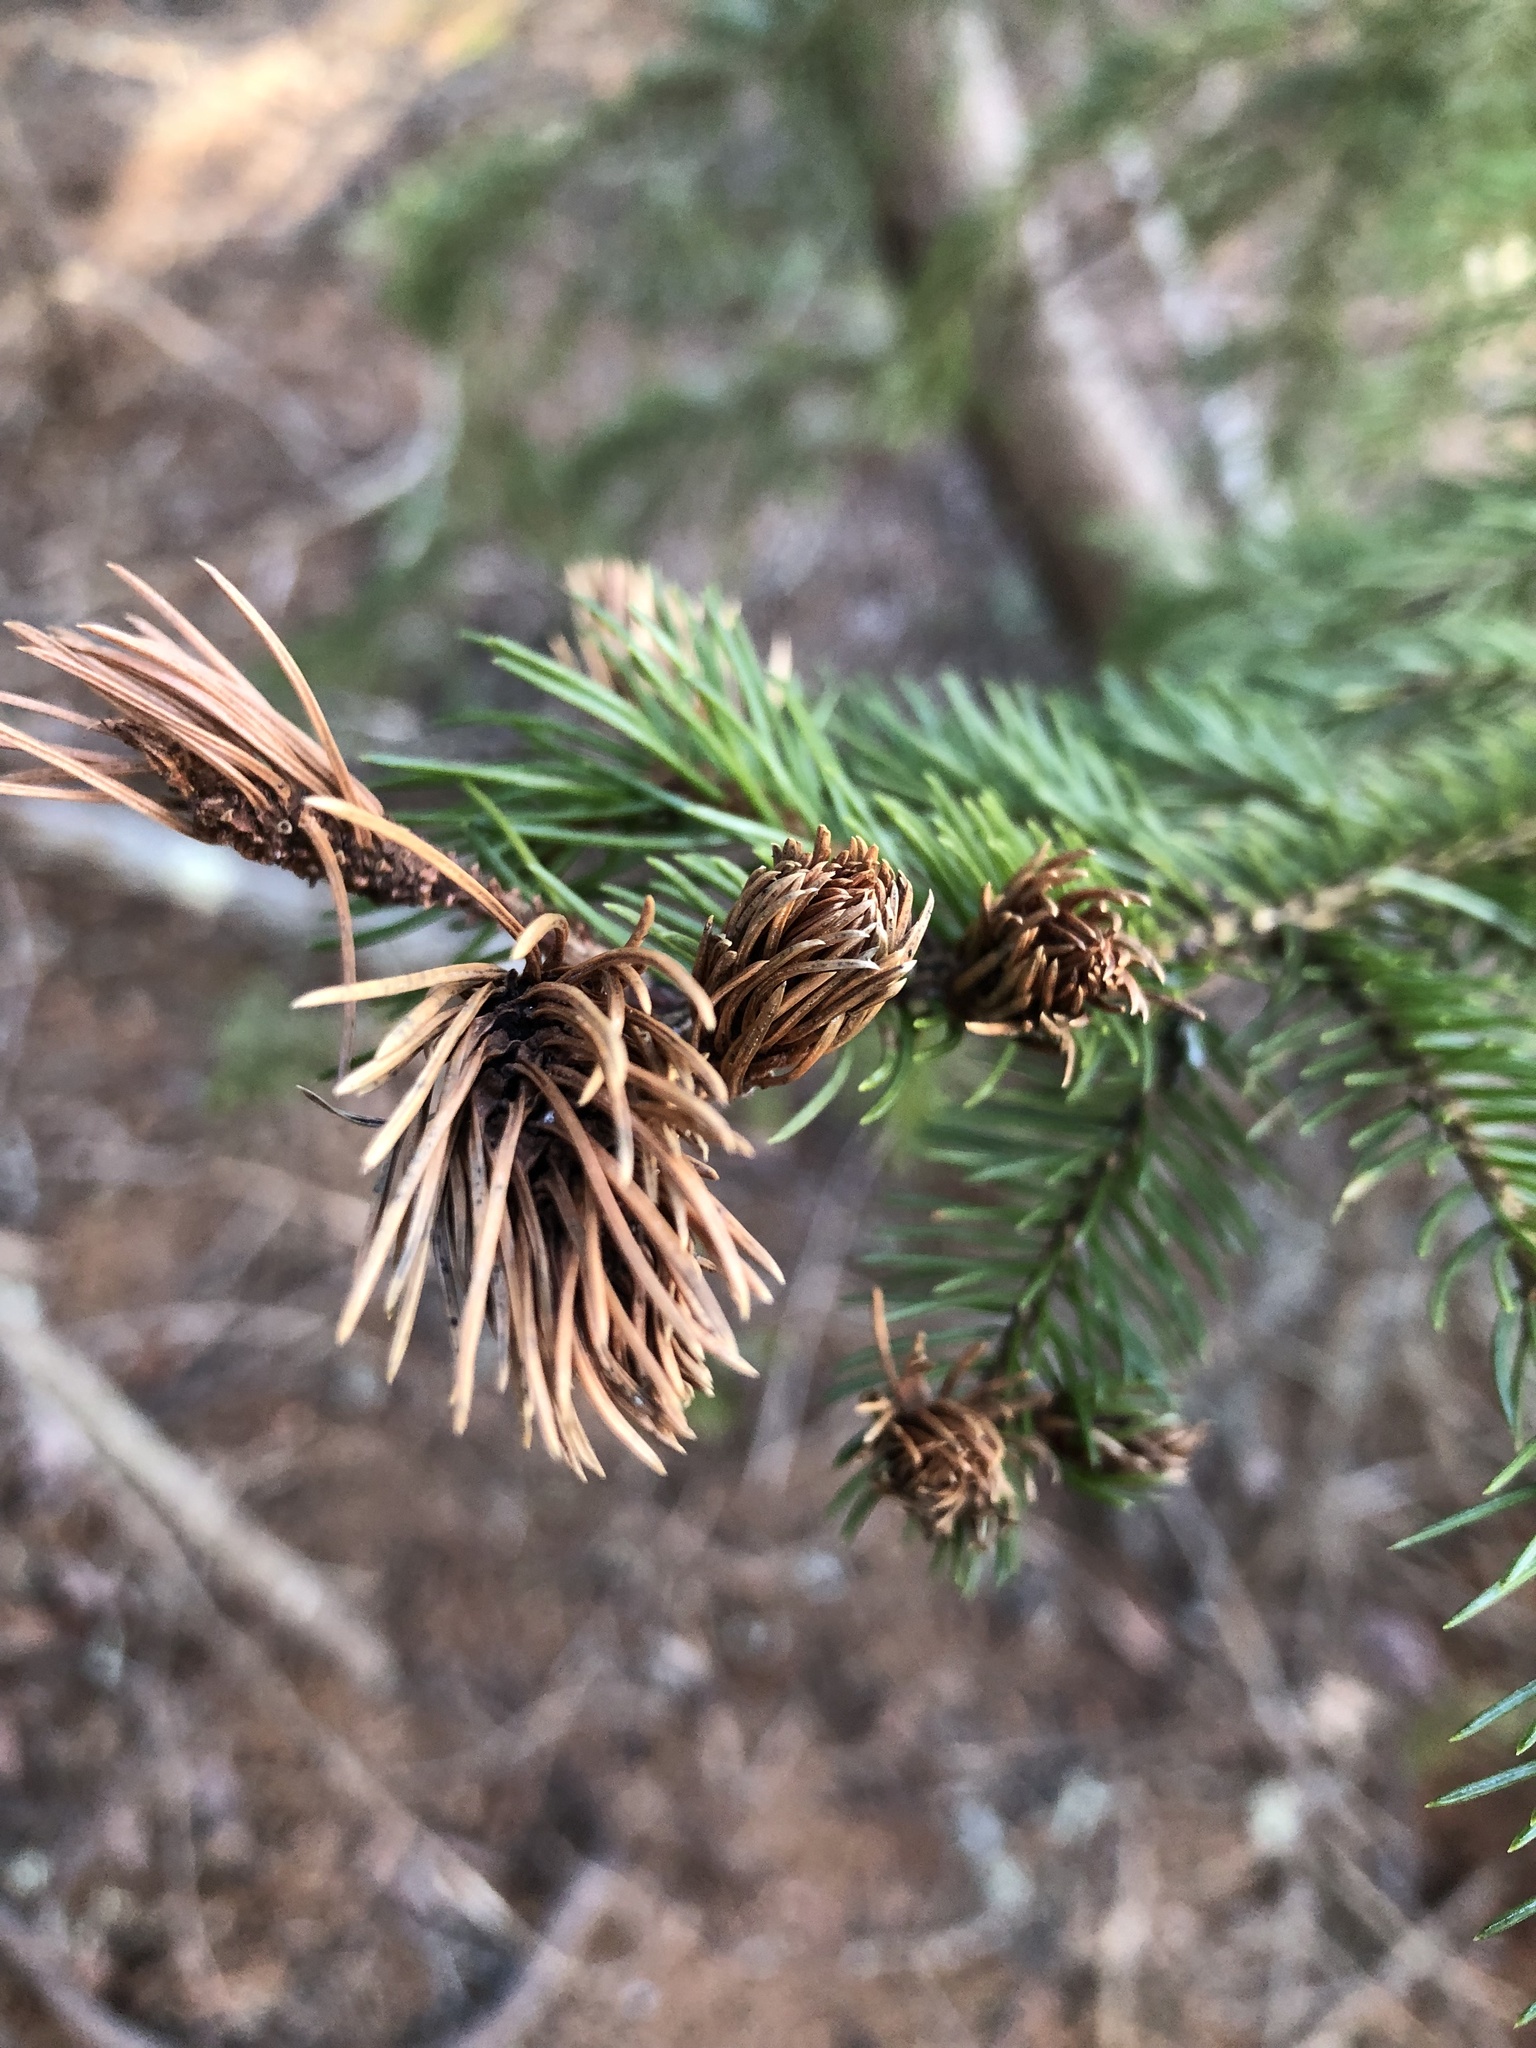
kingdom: Animalia
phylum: Arthropoda
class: Insecta
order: Hemiptera
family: Adelgidae
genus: Adelges
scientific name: Adelges abietis
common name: Eastern spruce gall adelgid
